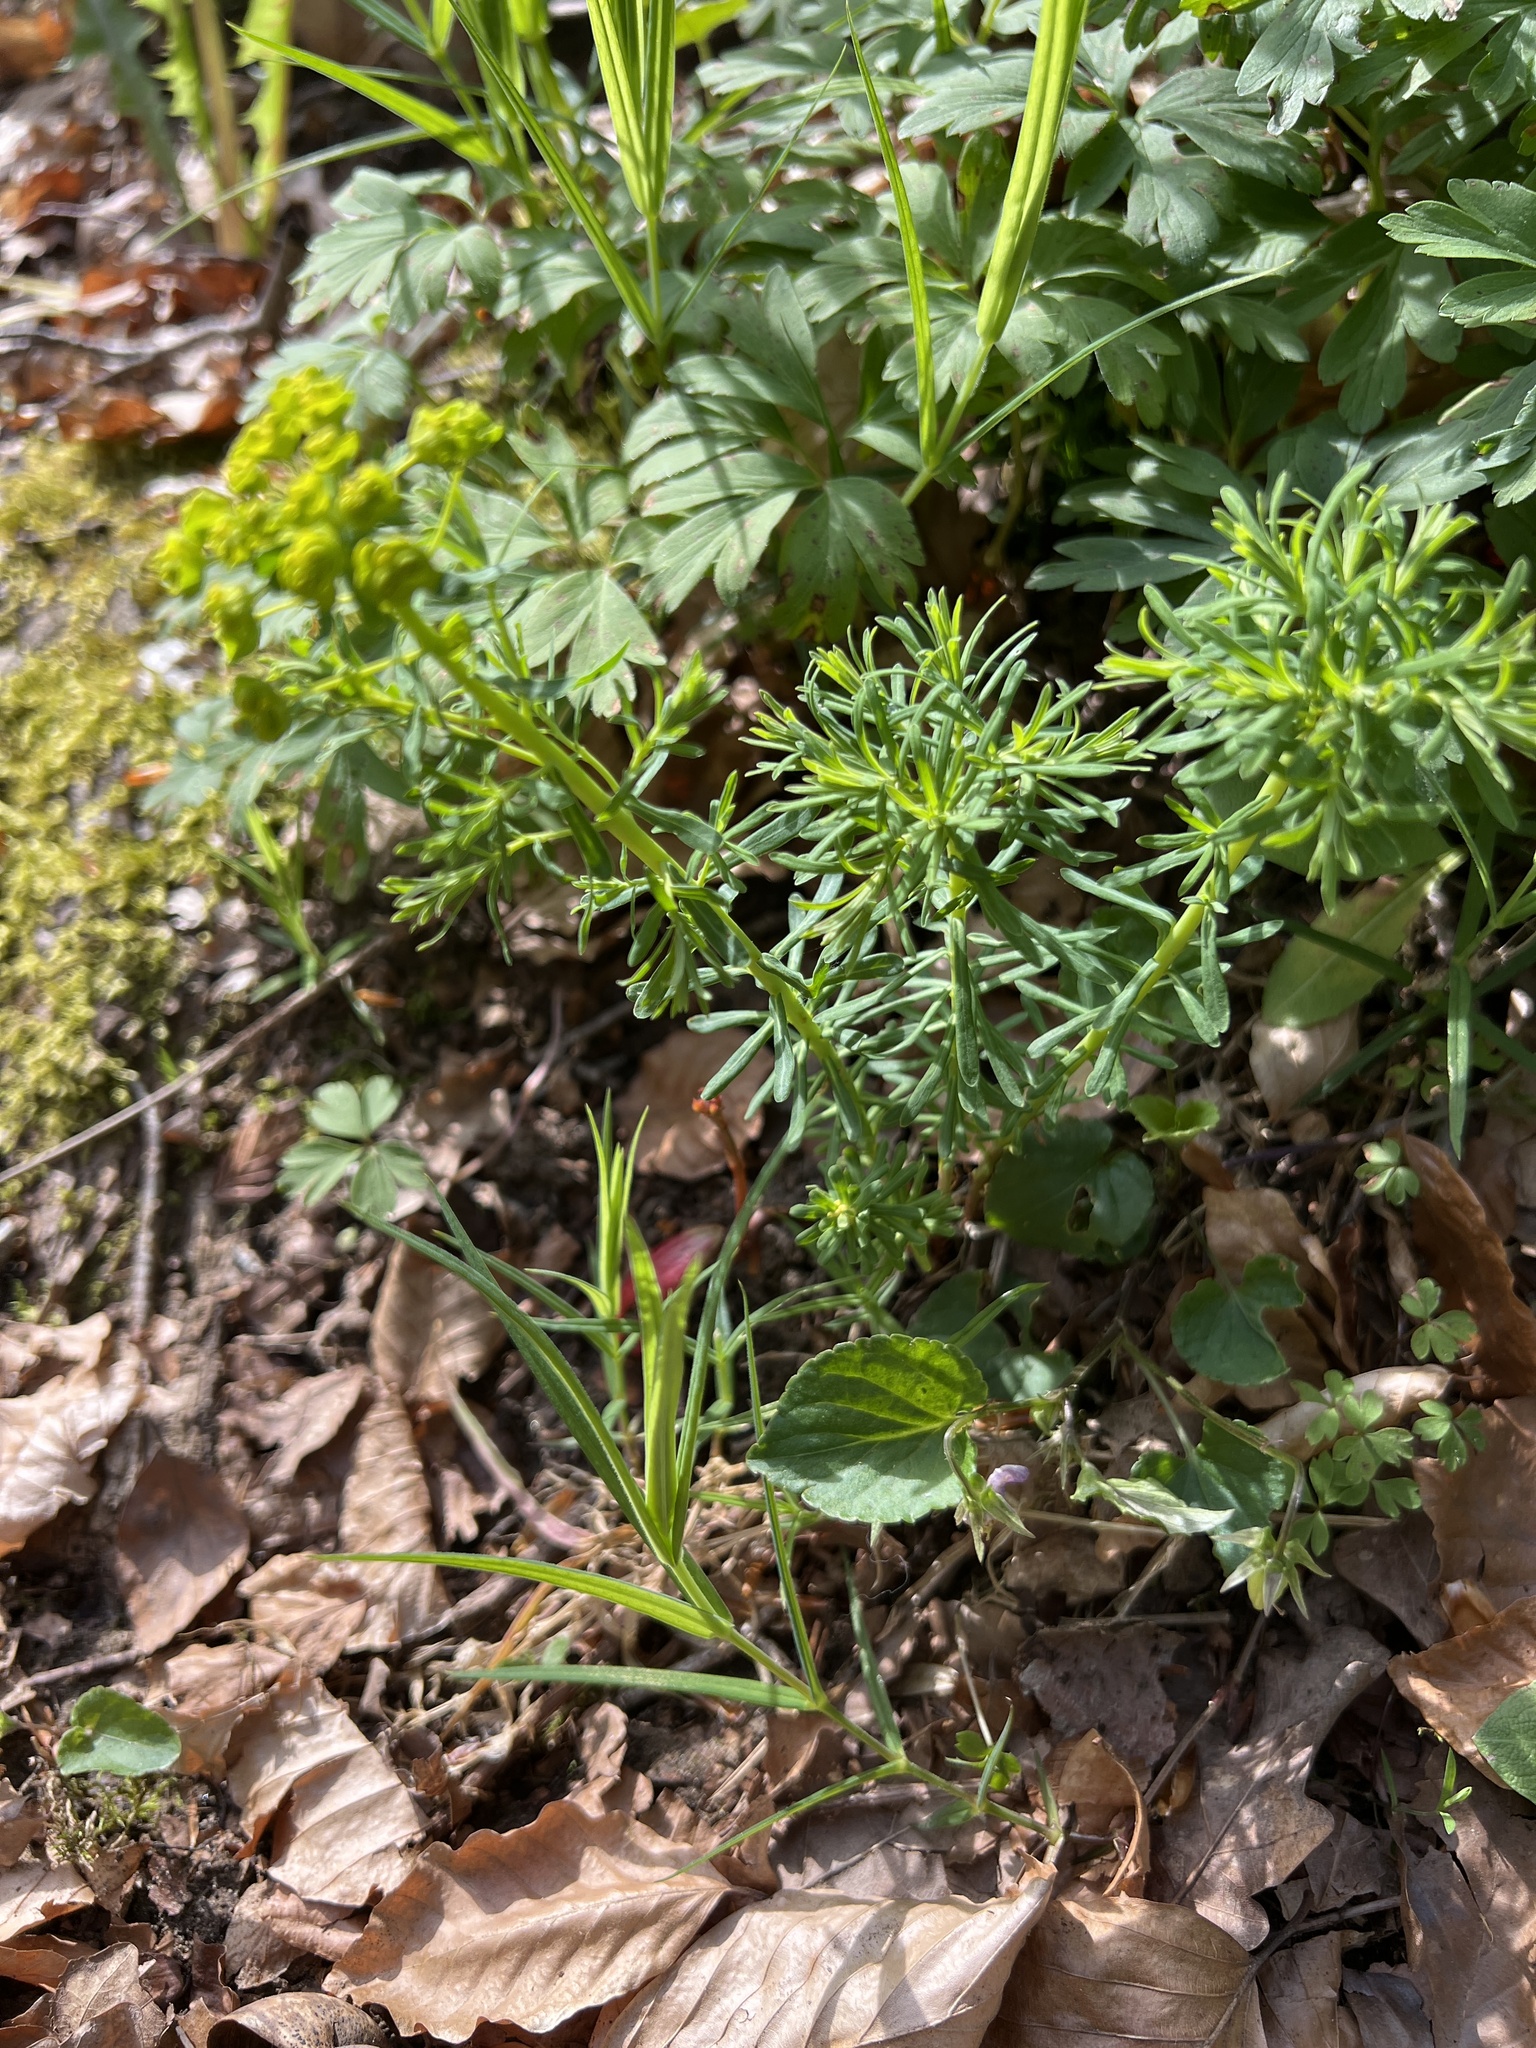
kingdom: Plantae
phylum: Tracheophyta
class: Magnoliopsida
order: Malpighiales
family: Euphorbiaceae
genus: Euphorbia
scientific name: Euphorbia cyparissias
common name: Cypress spurge
